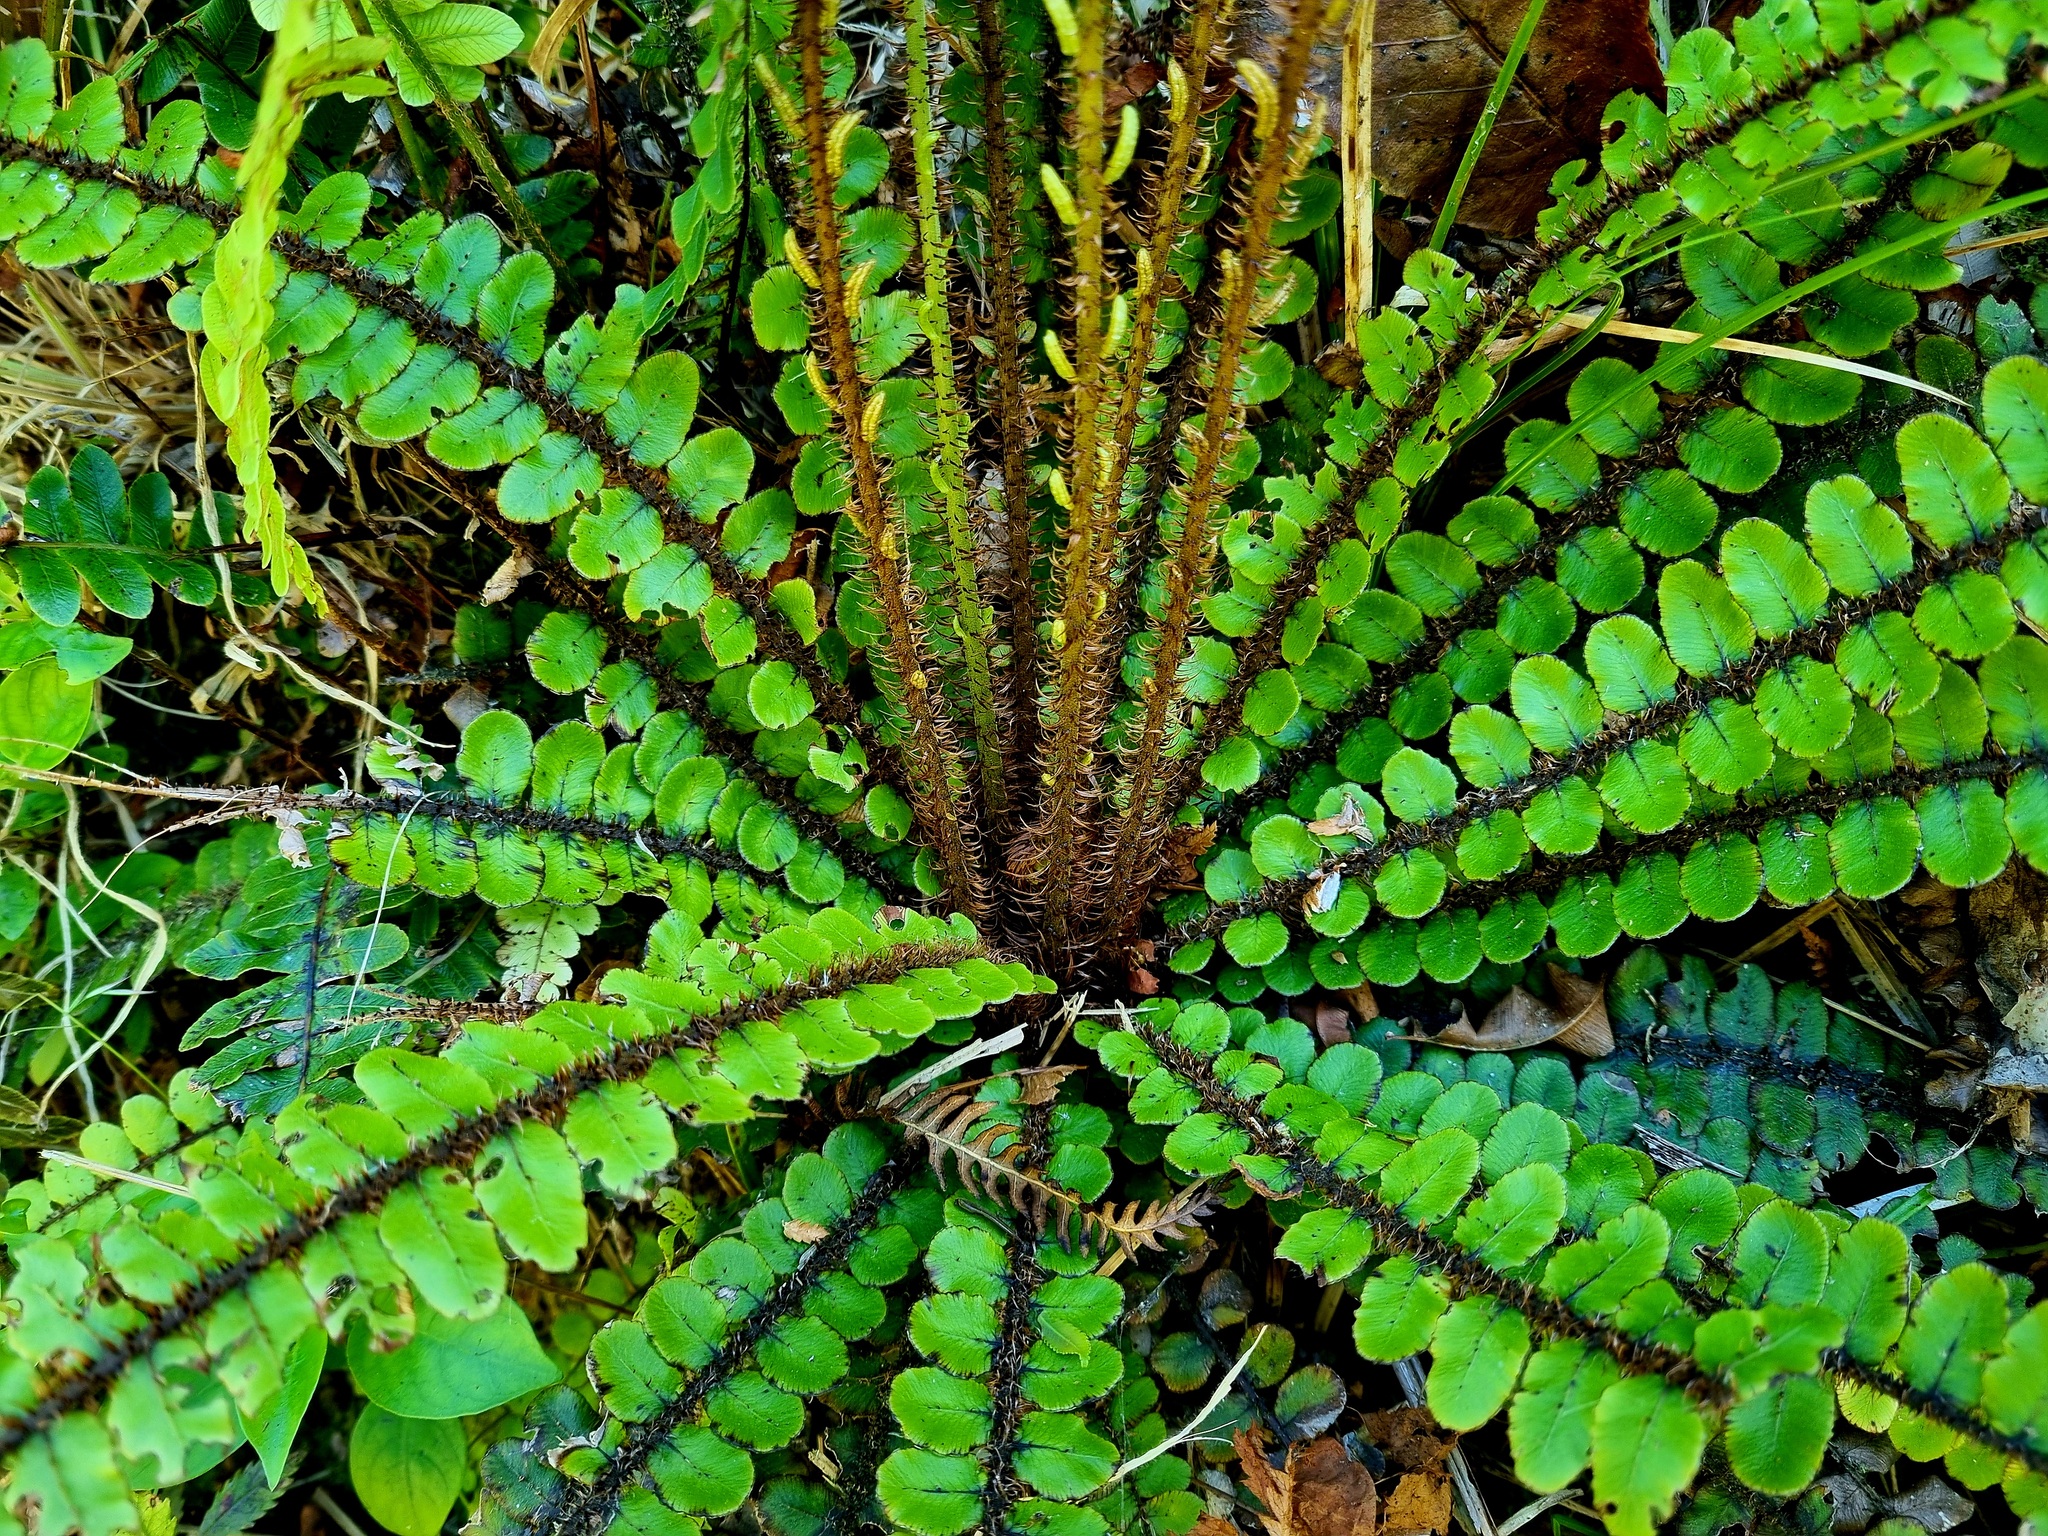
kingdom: Plantae
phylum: Tracheophyta
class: Polypodiopsida
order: Polypodiales
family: Blechnaceae
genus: Cranfillia
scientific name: Cranfillia fluviatilis
